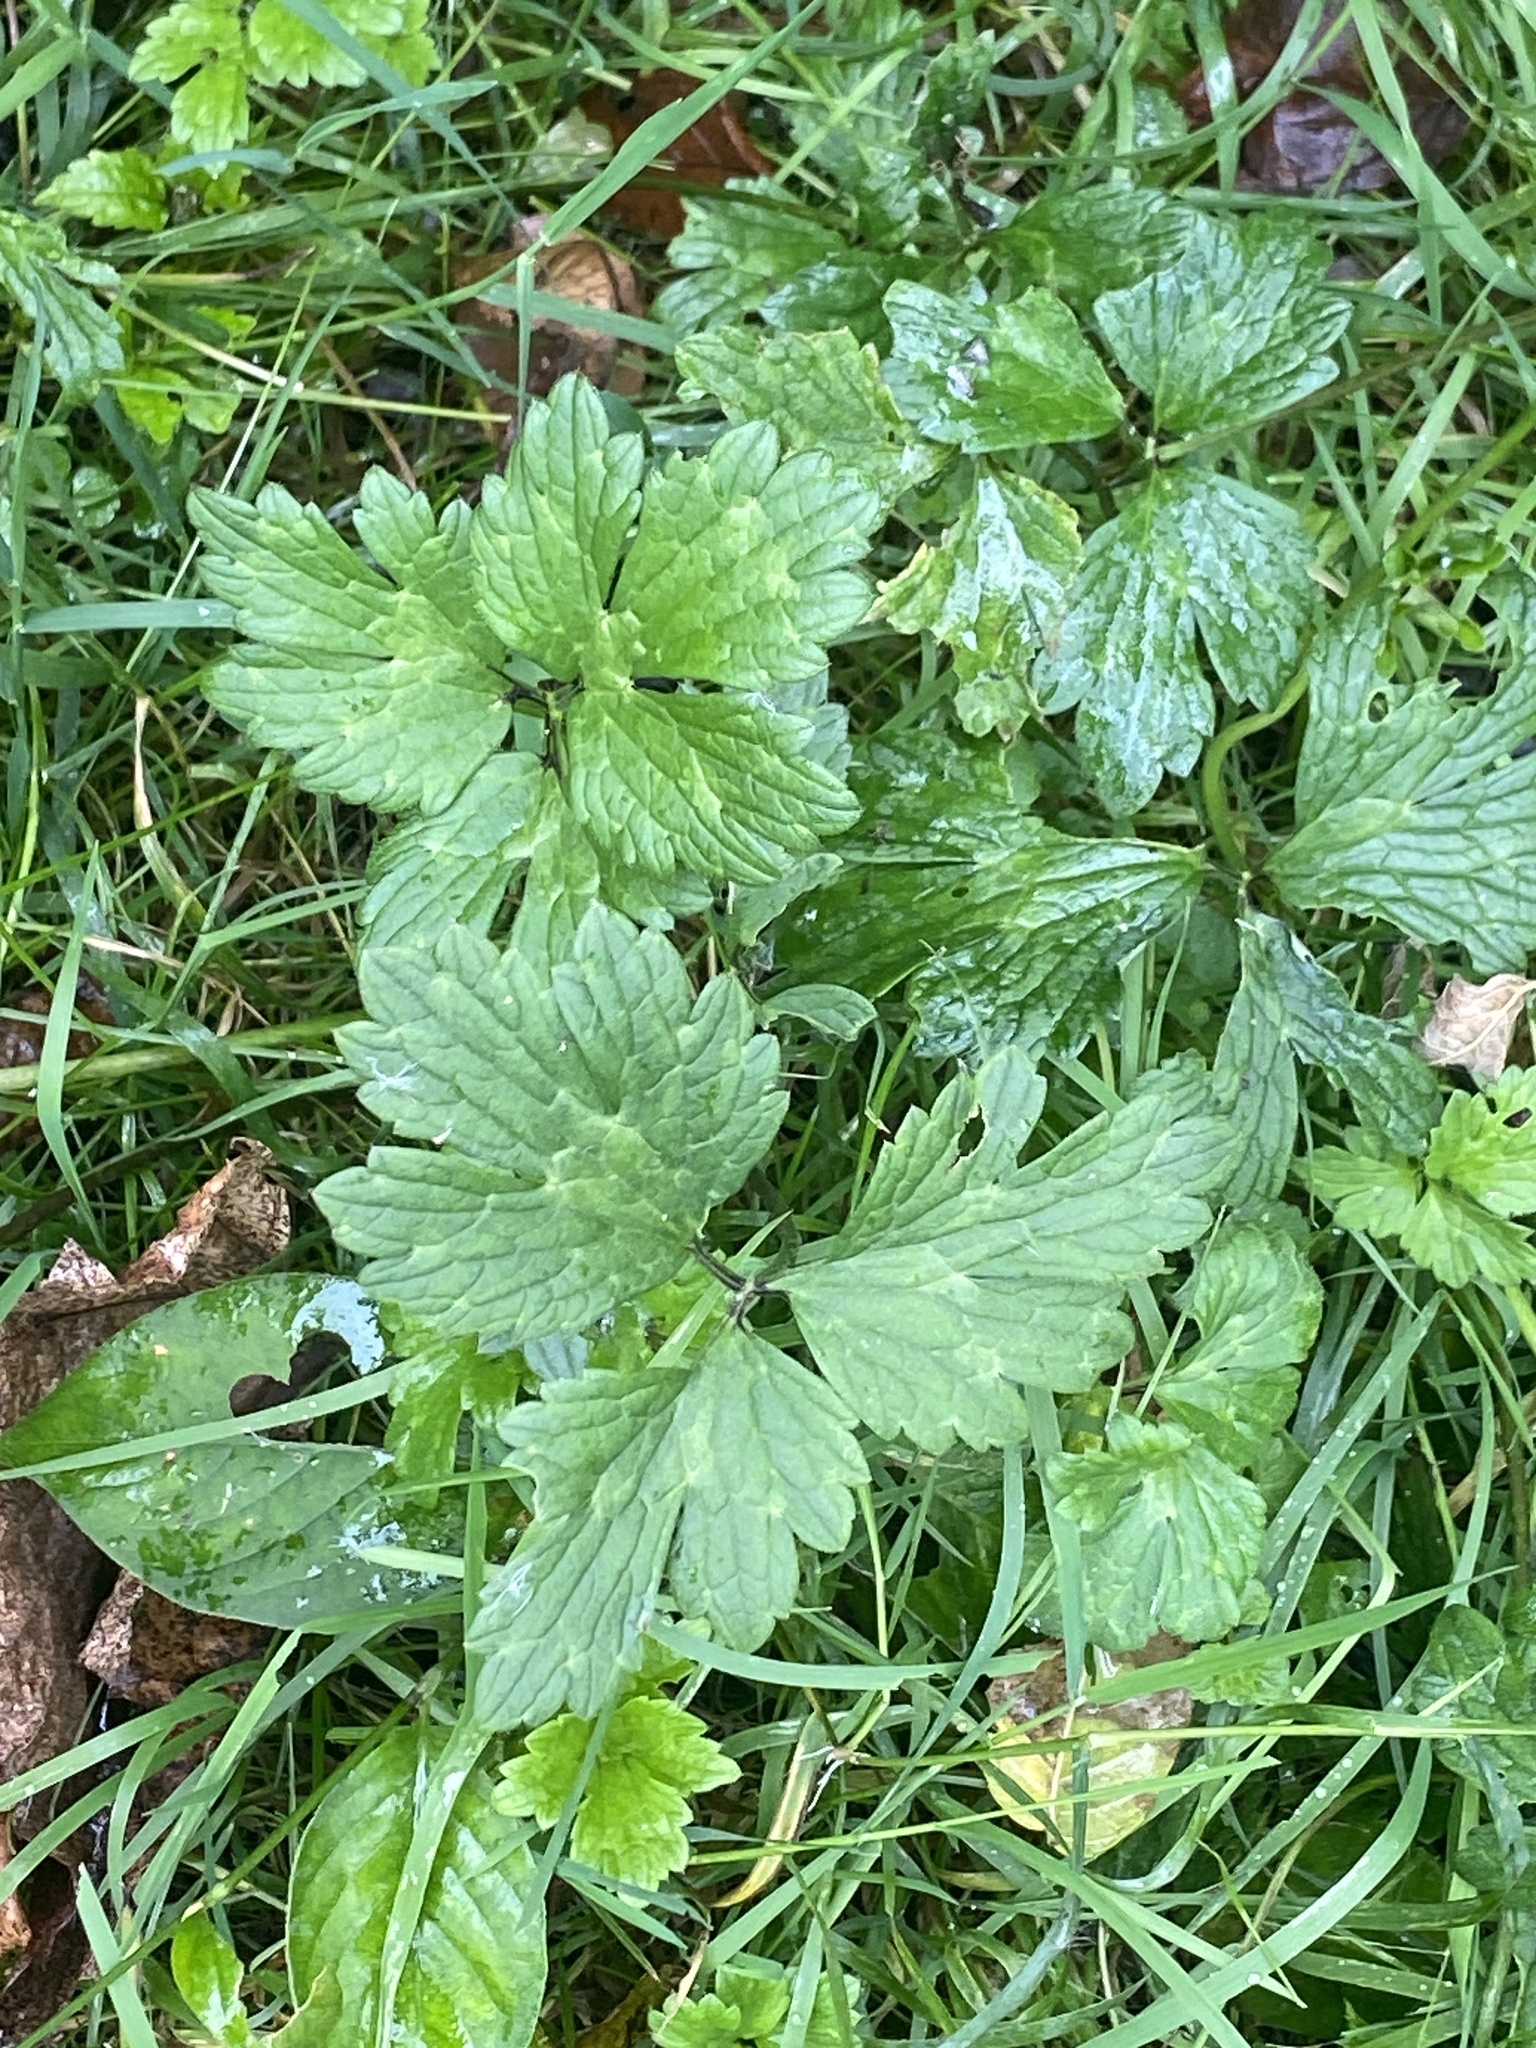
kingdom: Plantae
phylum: Tracheophyta
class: Magnoliopsida
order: Ranunculales
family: Ranunculaceae
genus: Ranunculus
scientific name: Ranunculus repens
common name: Creeping buttercup
